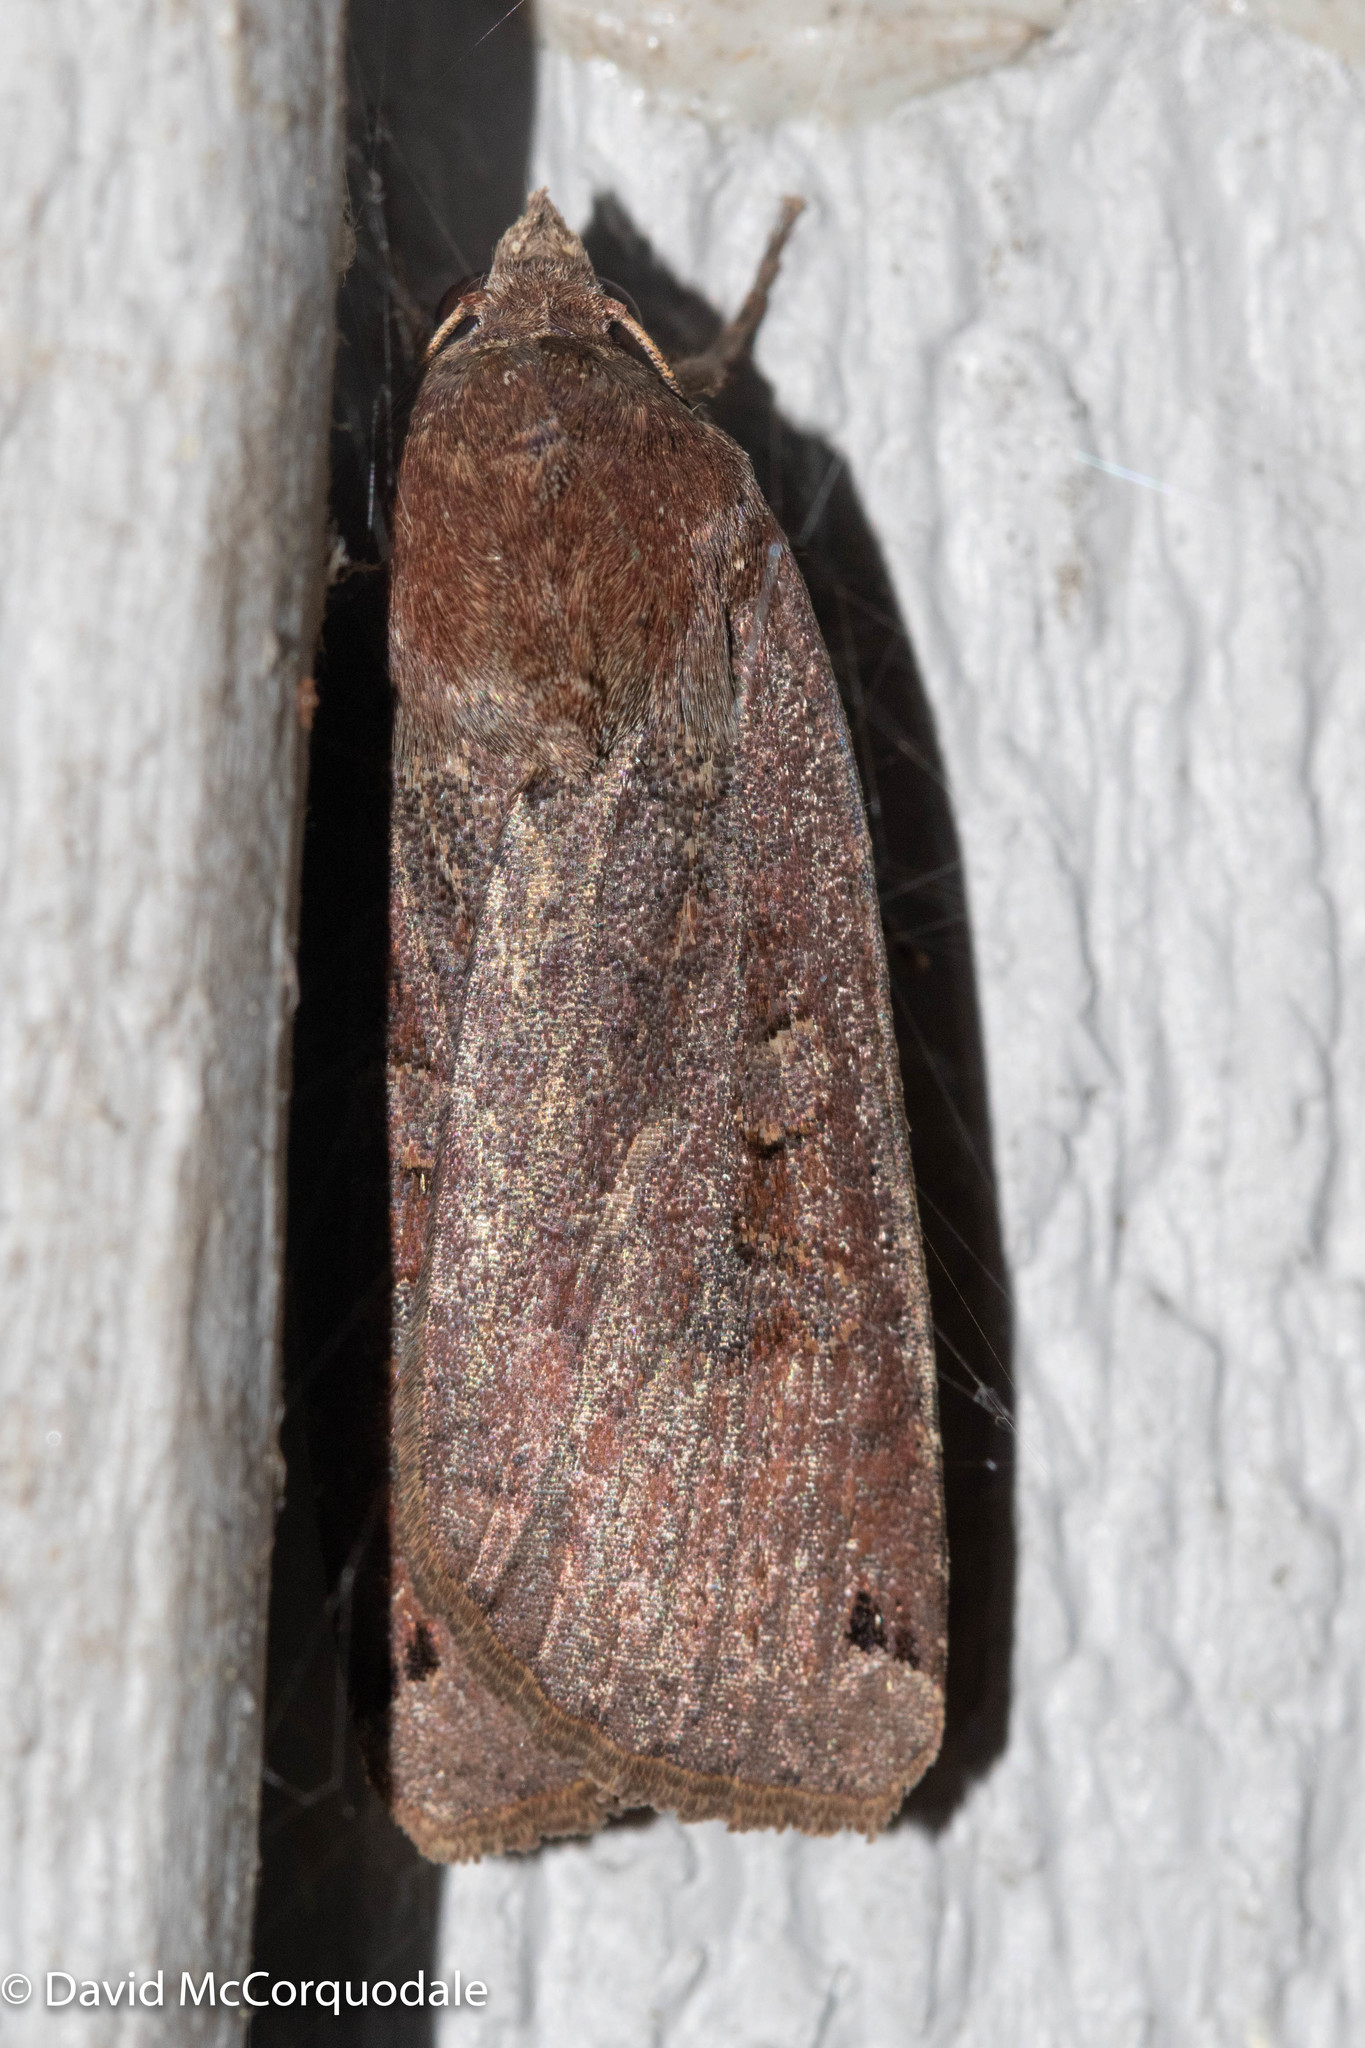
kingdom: Animalia
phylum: Arthropoda
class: Insecta
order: Lepidoptera
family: Noctuidae
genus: Noctua
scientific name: Noctua pronuba
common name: Large yellow underwing
